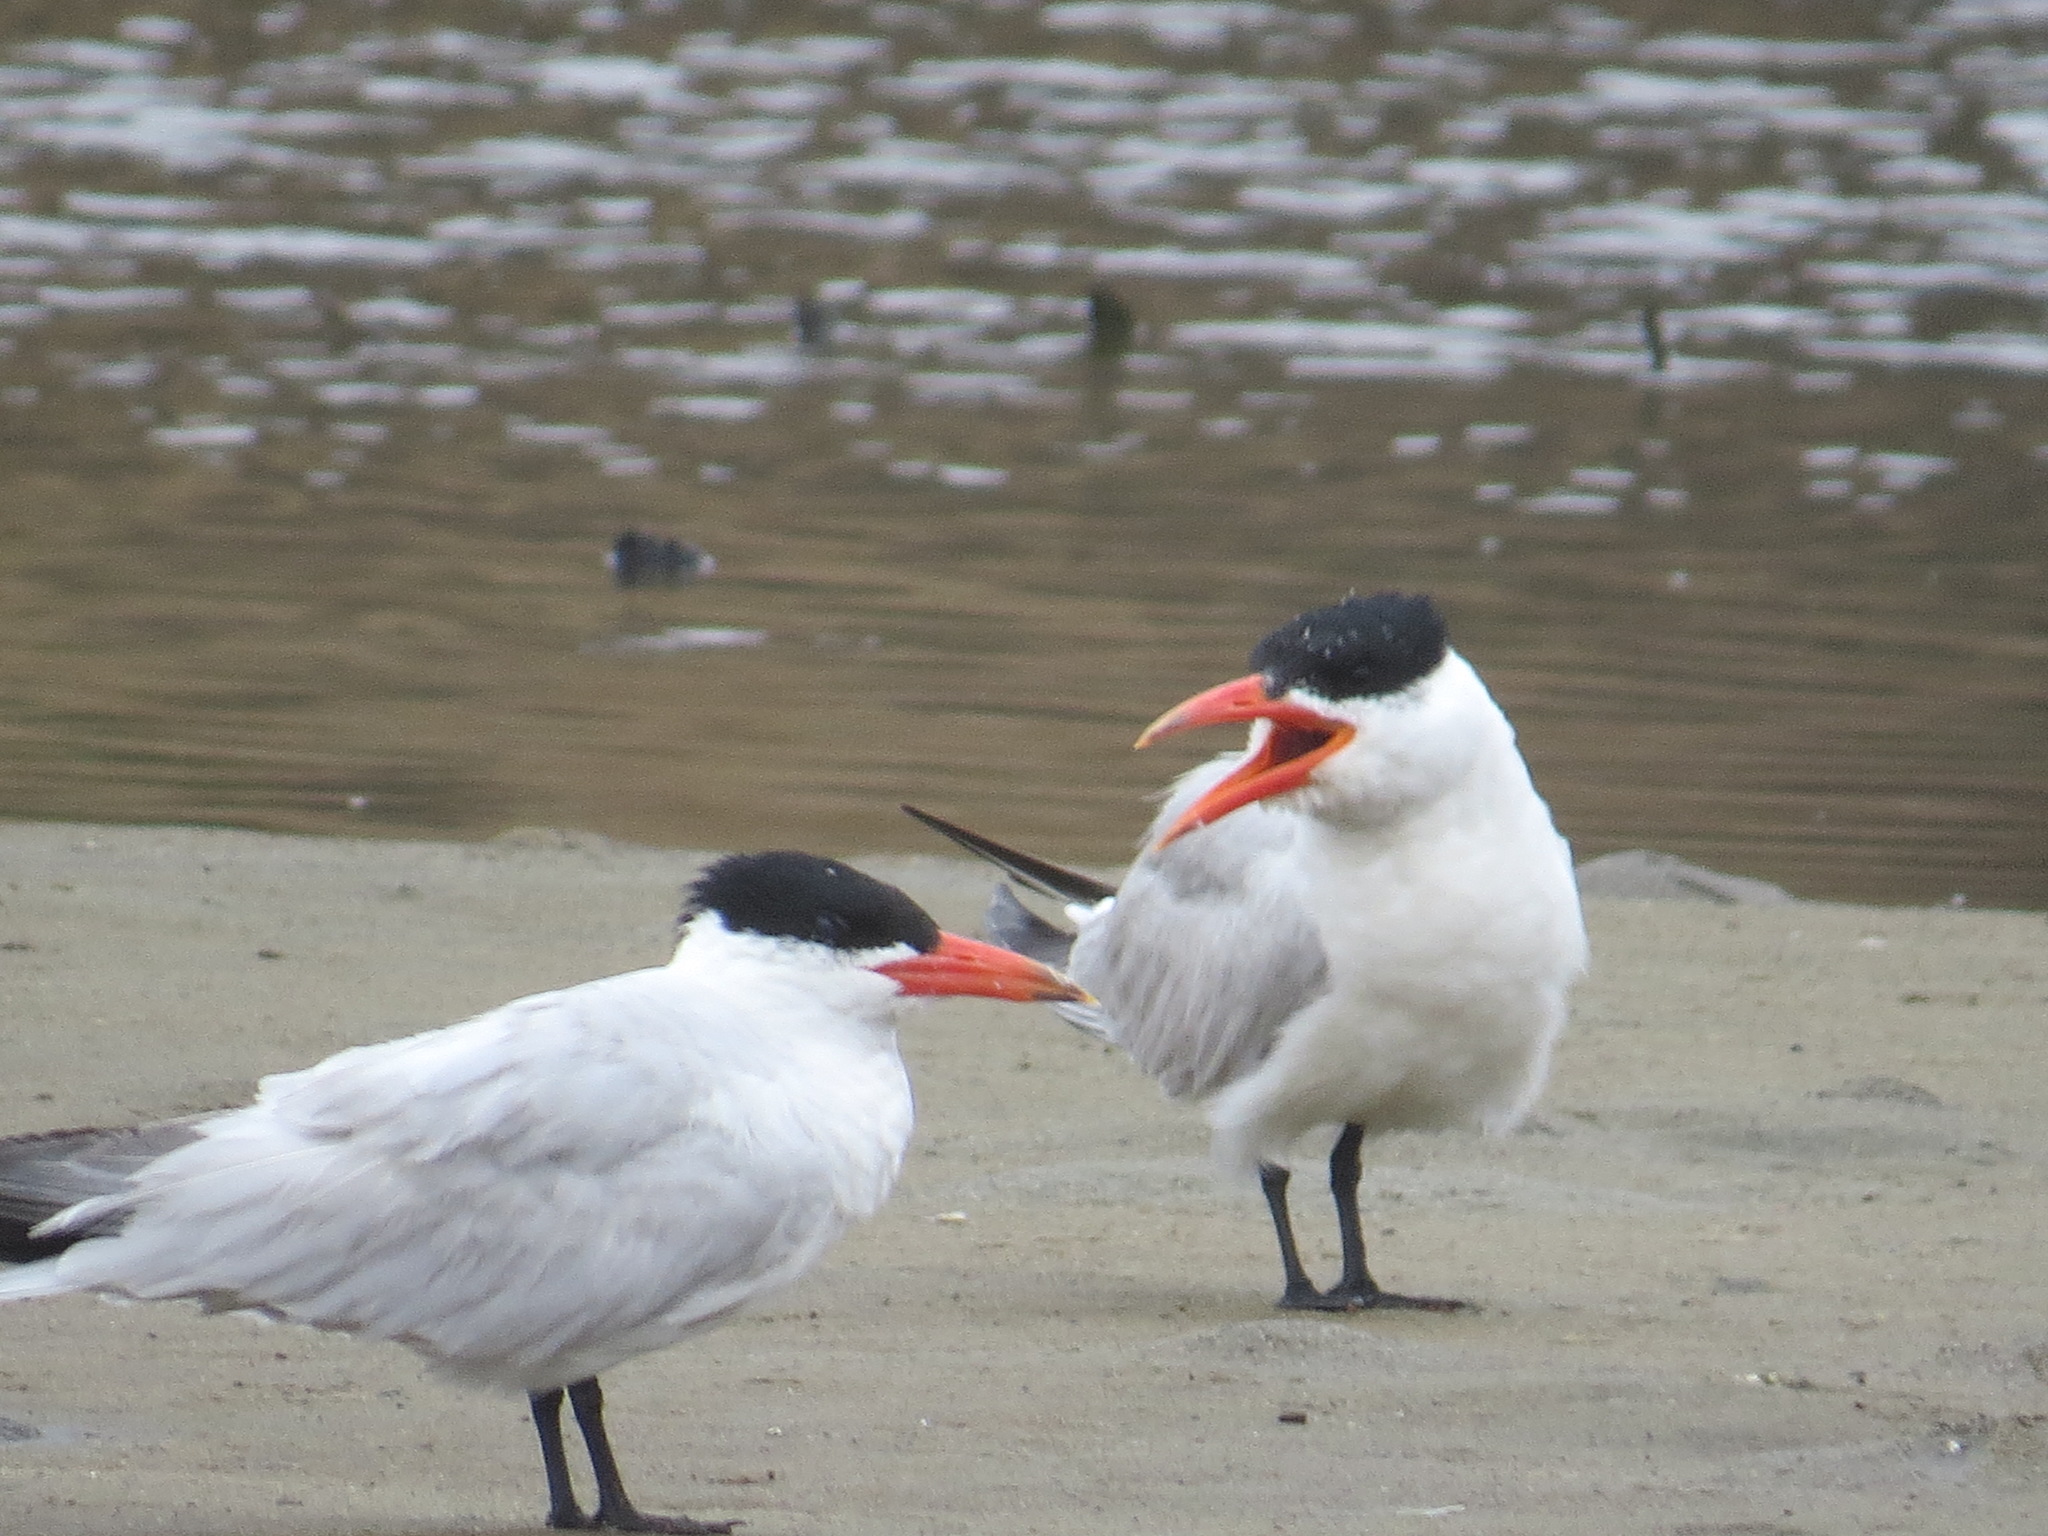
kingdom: Animalia
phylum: Chordata
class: Aves
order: Charadriiformes
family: Laridae
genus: Hydroprogne
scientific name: Hydroprogne caspia
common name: Caspian tern
